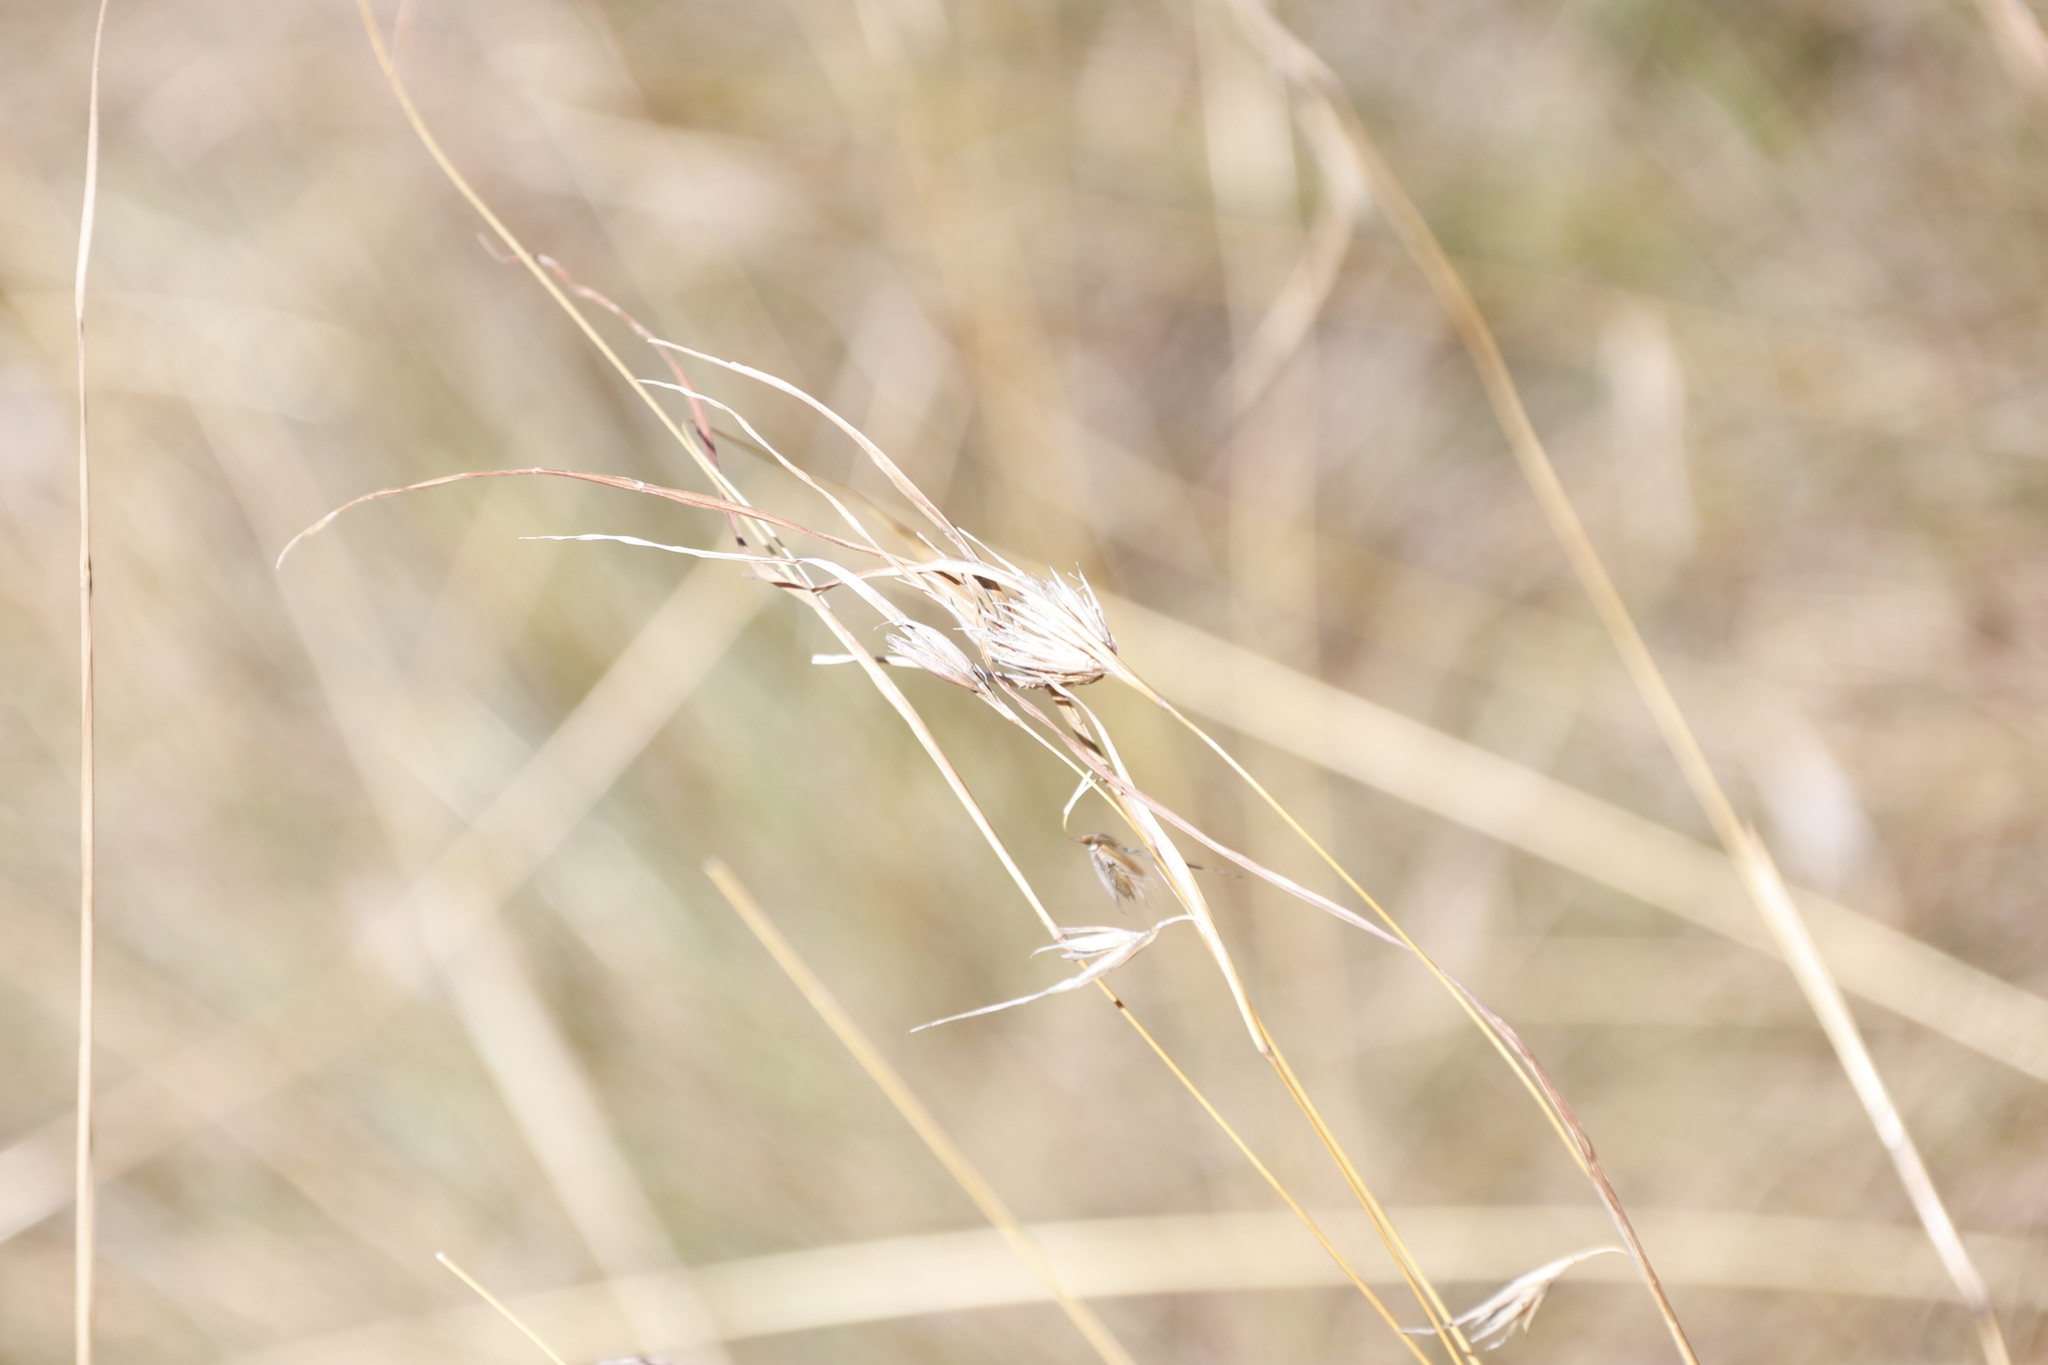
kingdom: Plantae
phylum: Tracheophyta
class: Liliopsida
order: Poales
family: Poaceae
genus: Themeda
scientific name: Themeda triandra
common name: Kangaroo grass
